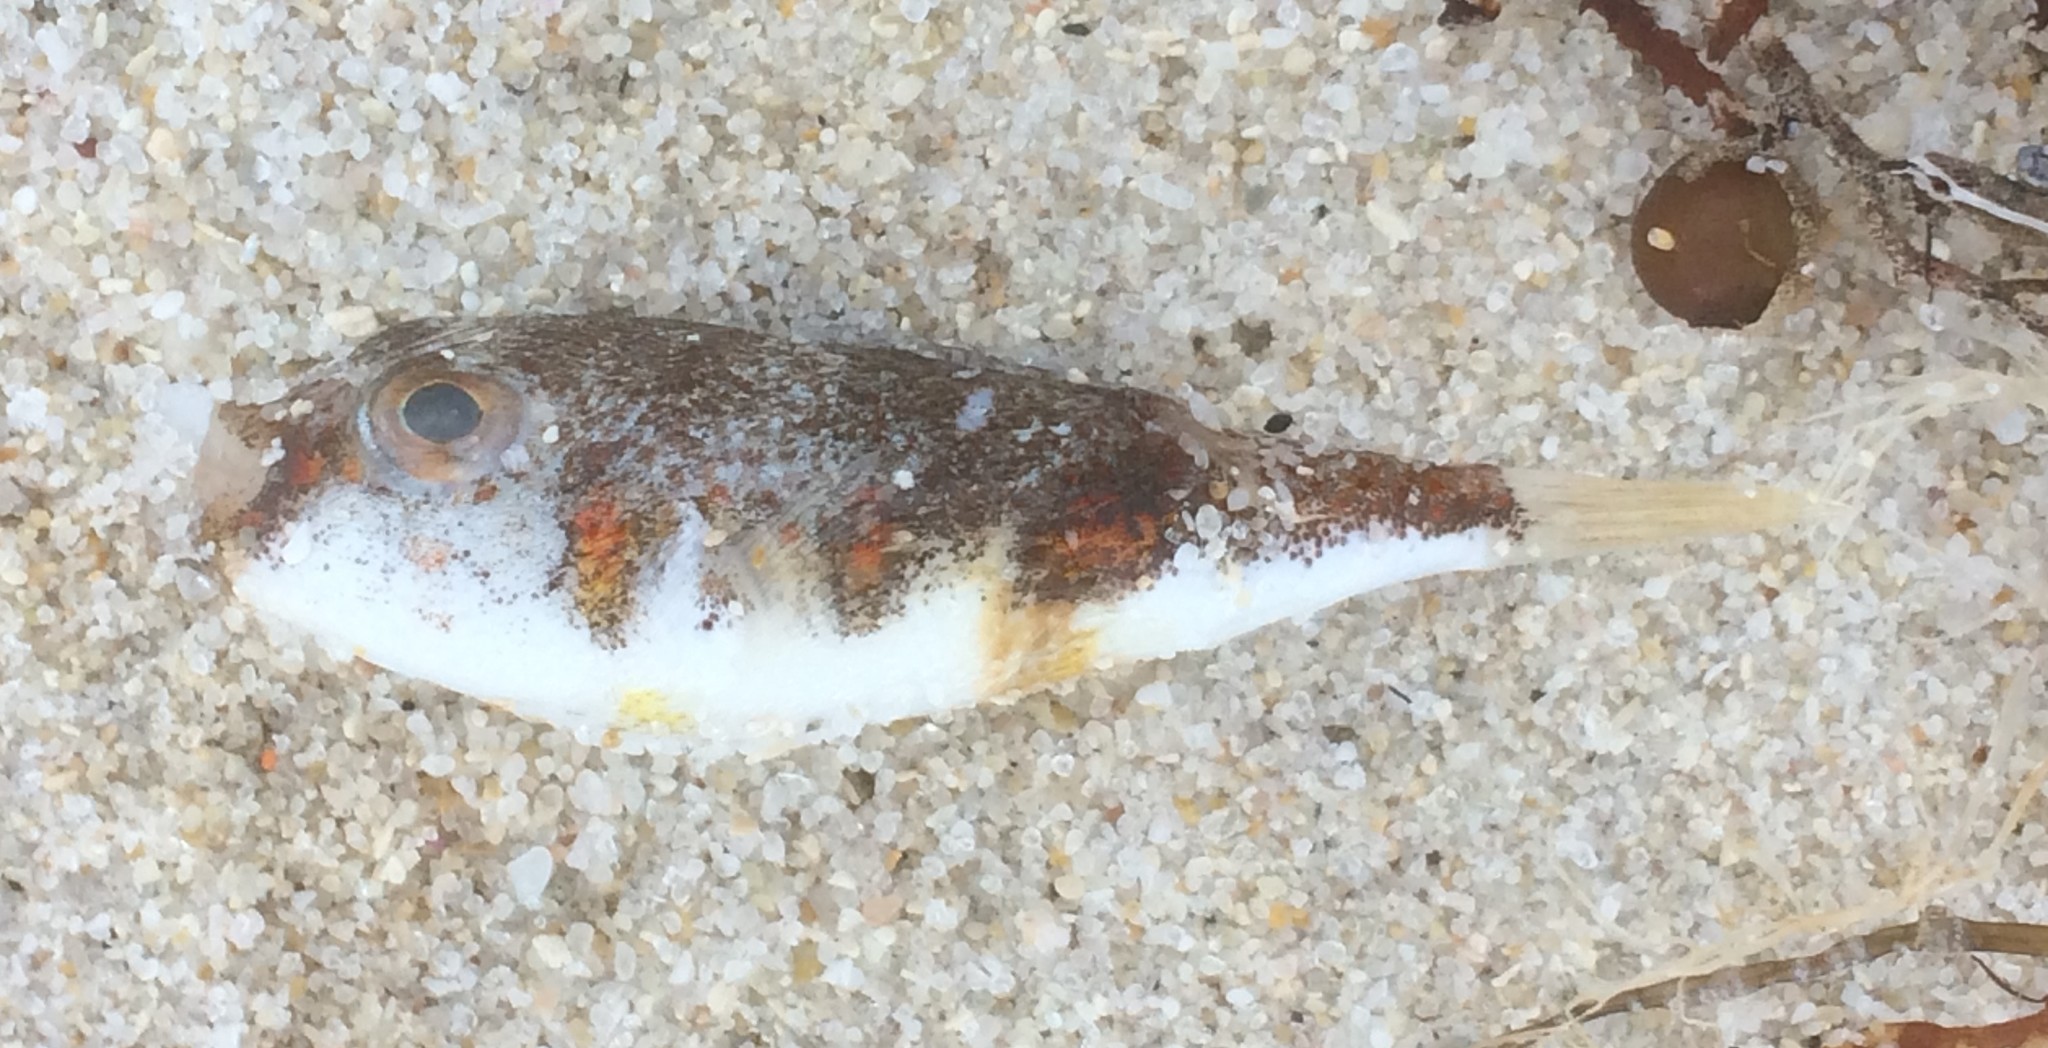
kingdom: Animalia
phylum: Chordata
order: Tetraodontiformes
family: Tetraodontidae
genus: Polyspina
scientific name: Polyspina piosae
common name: Orange-barred pufferfish
